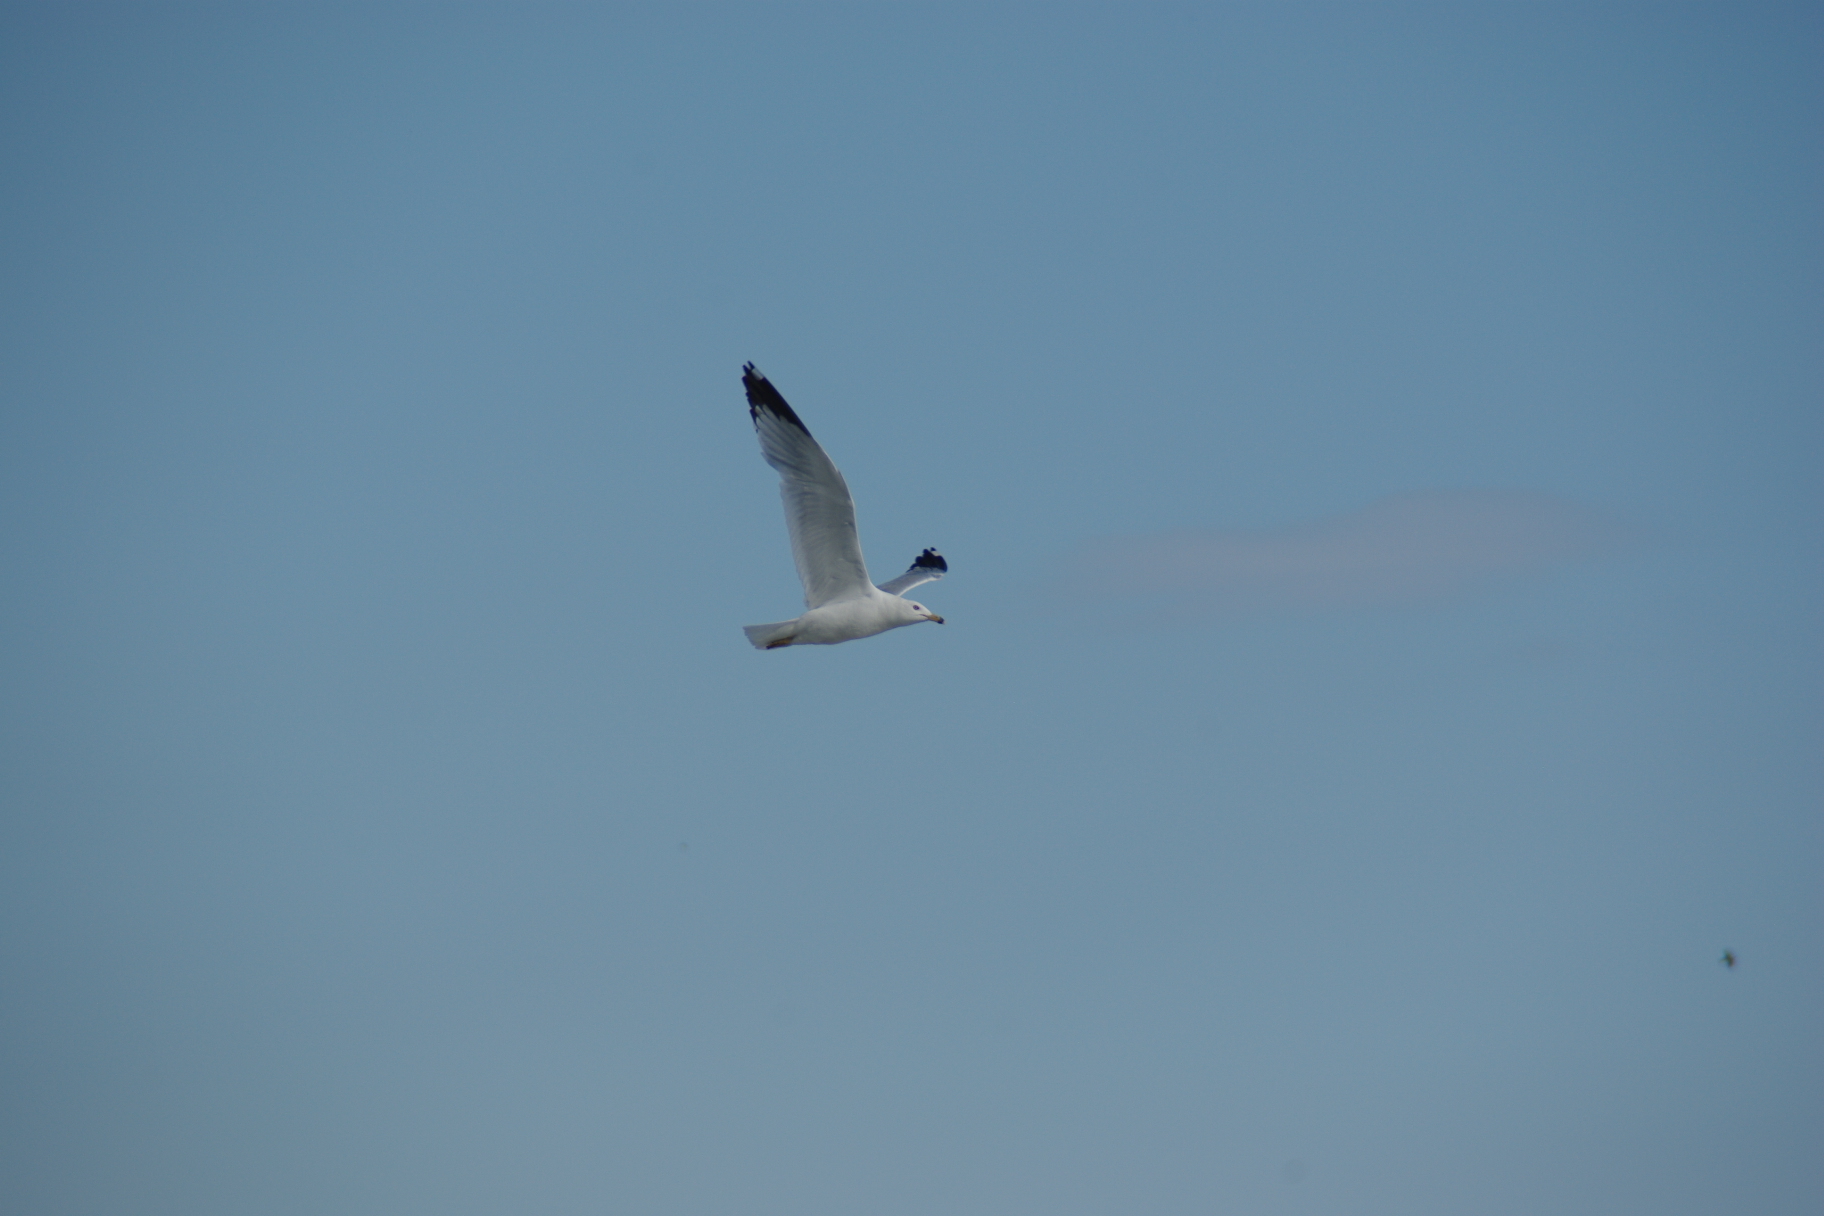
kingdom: Animalia
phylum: Chordata
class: Aves
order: Charadriiformes
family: Laridae
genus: Larus
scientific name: Larus delawarensis
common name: Ring-billed gull
